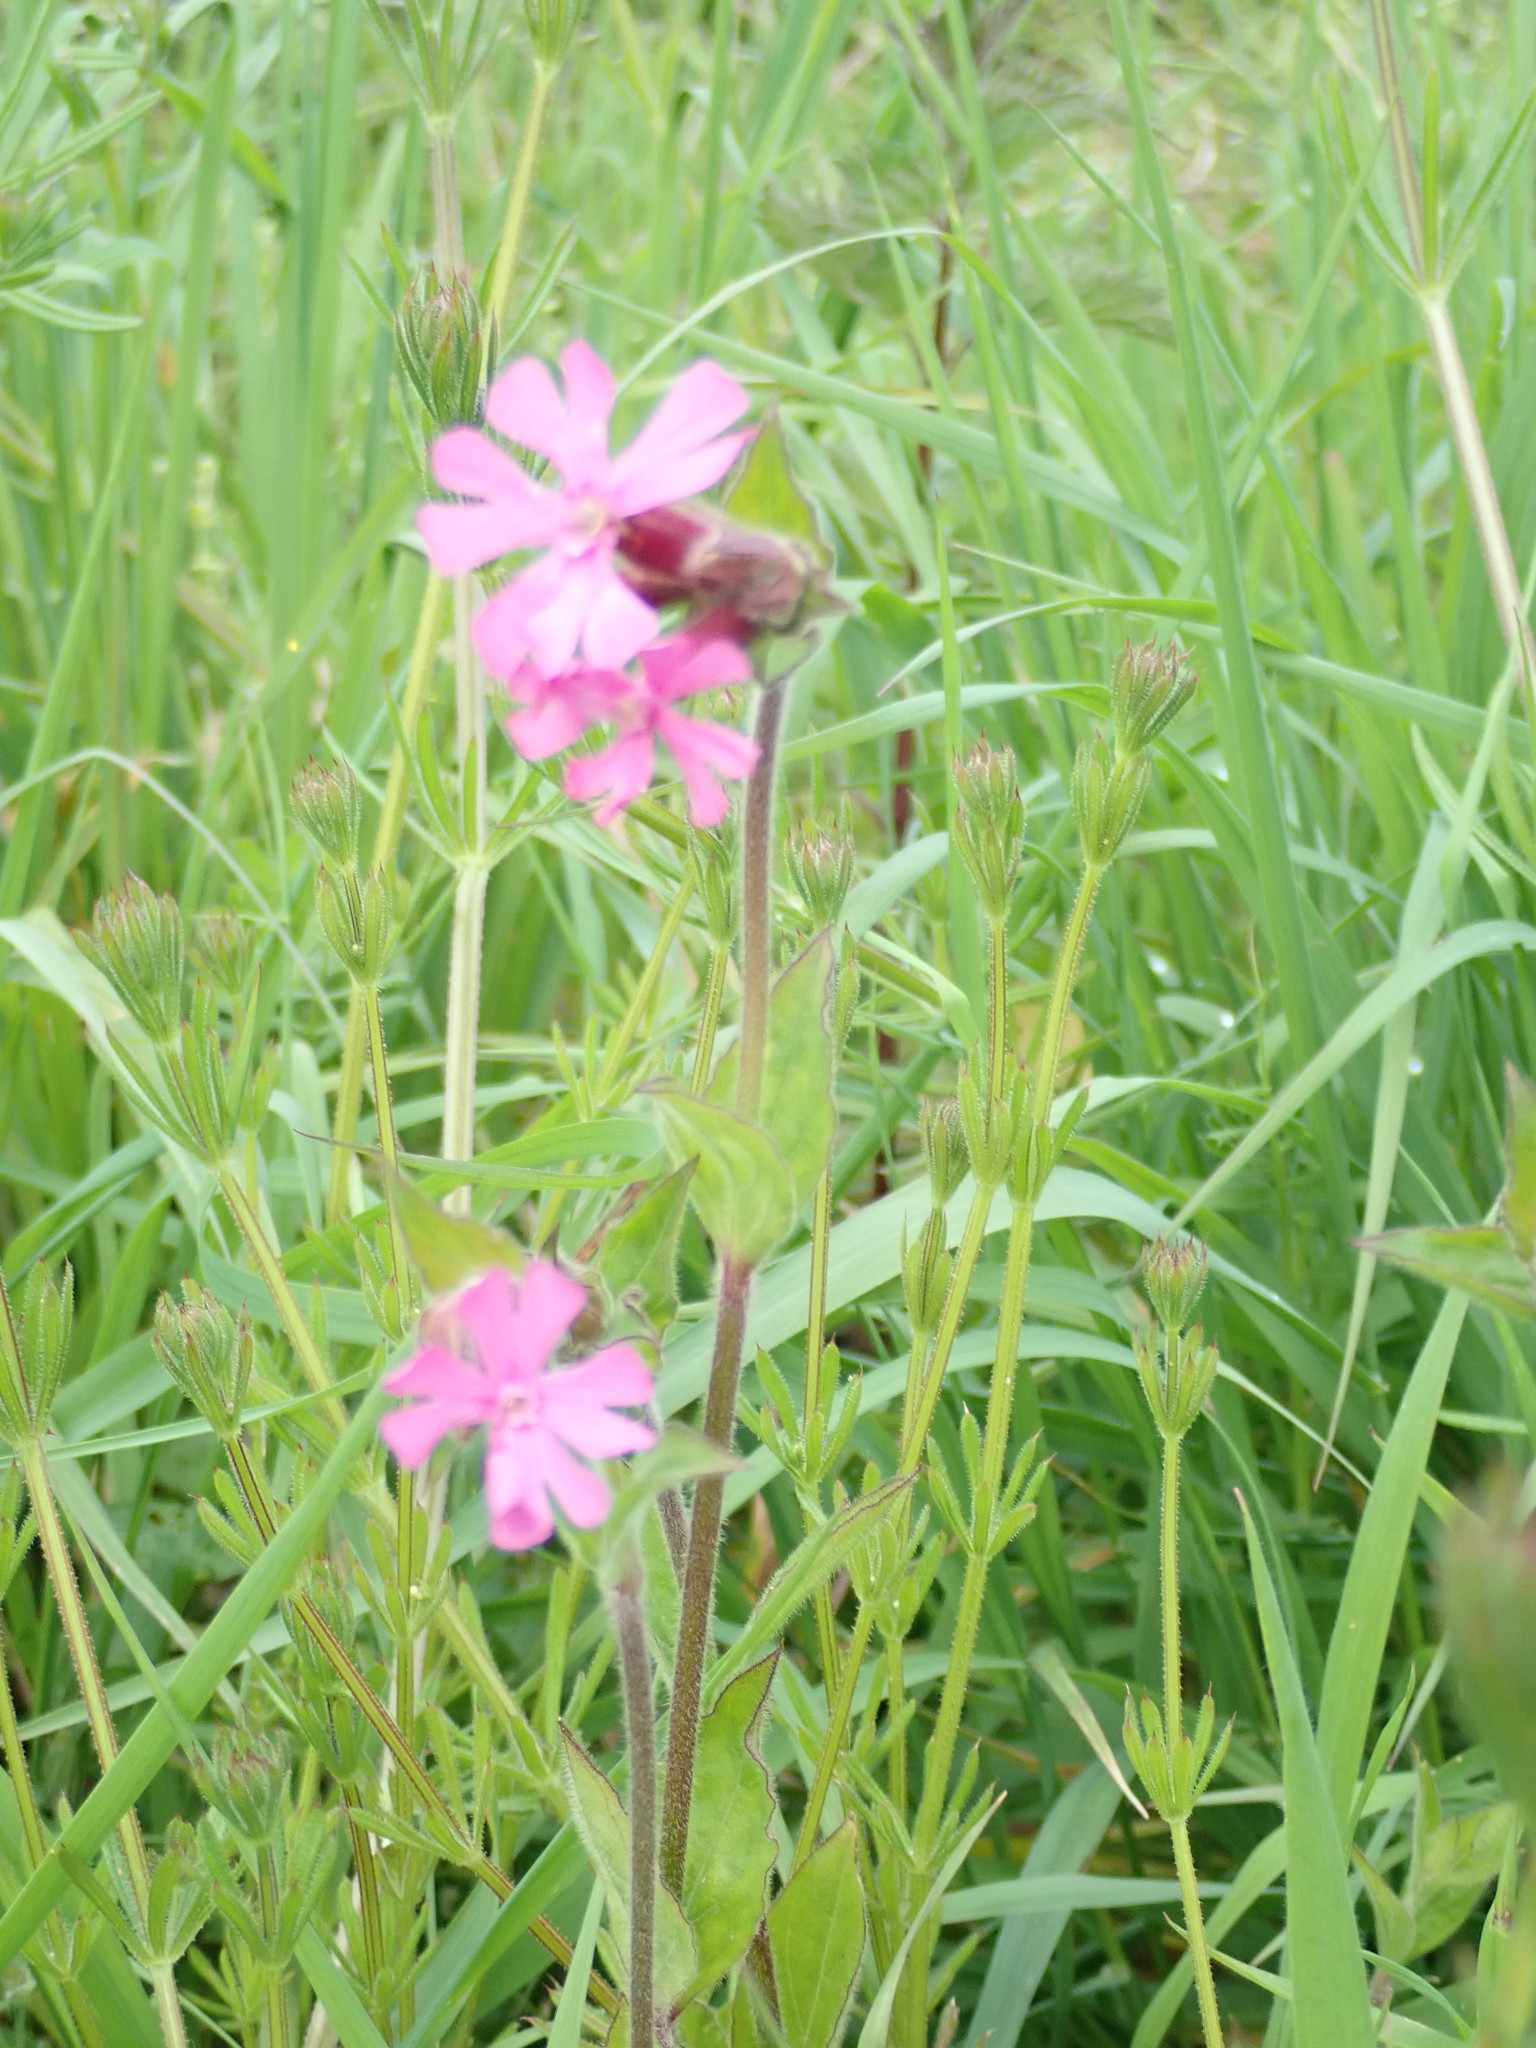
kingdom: Plantae
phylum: Tracheophyta
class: Magnoliopsida
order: Caryophyllales
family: Caryophyllaceae
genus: Silene
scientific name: Silene dioica
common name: Red campion
